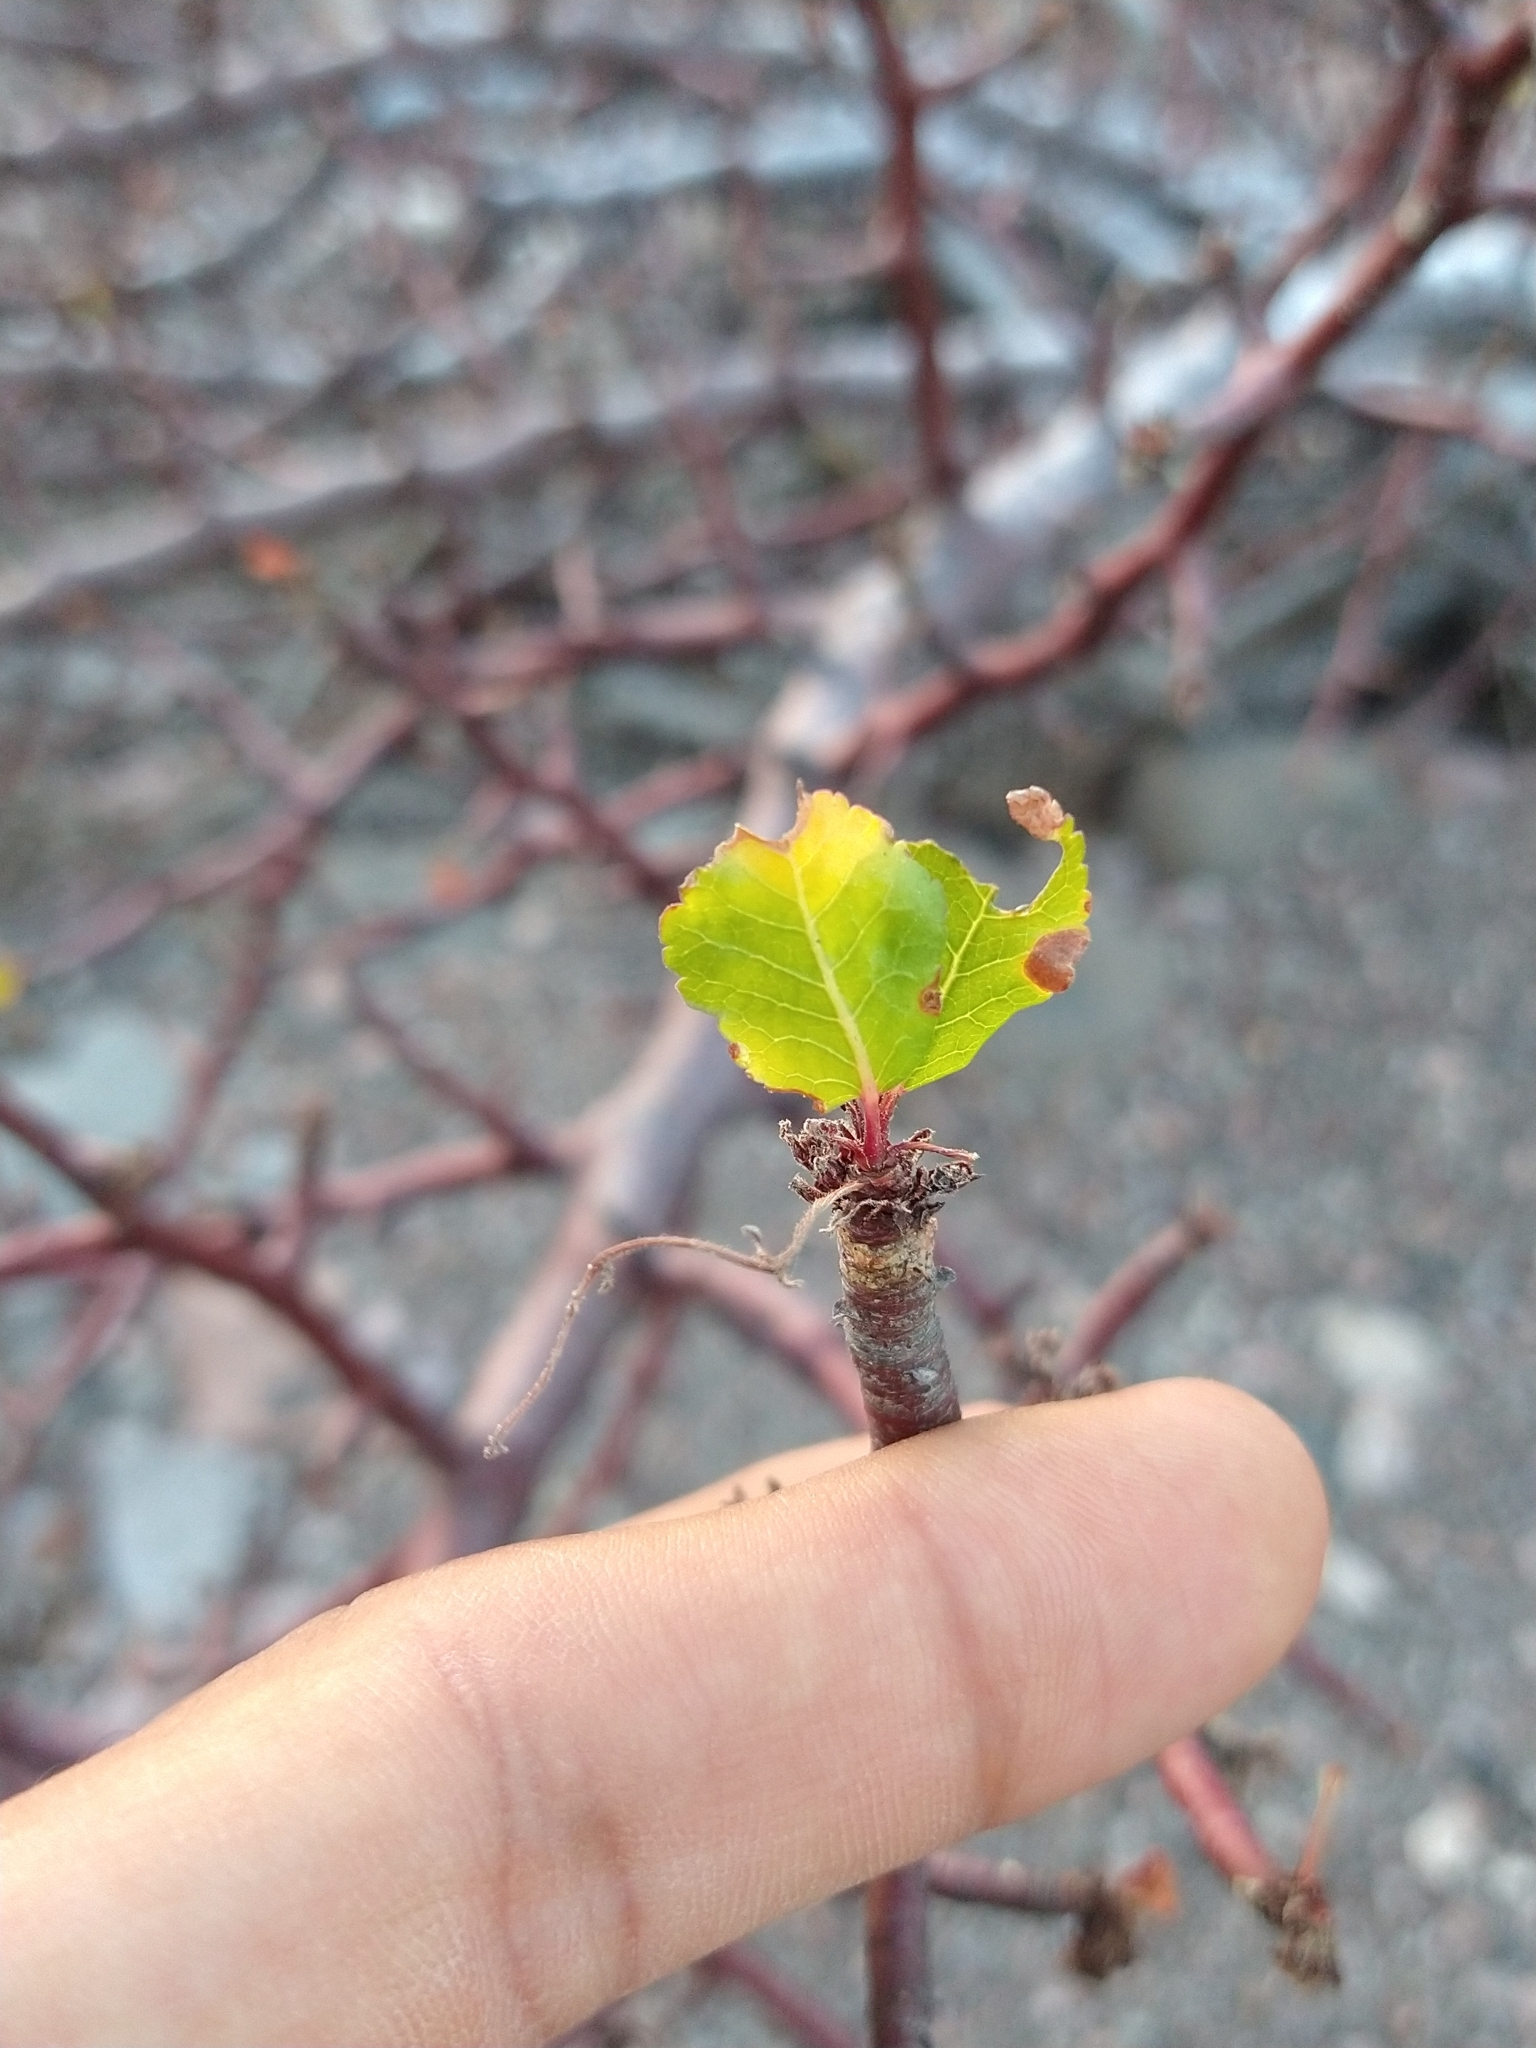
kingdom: Plantae
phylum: Tracheophyta
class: Magnoliopsida
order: Sapindales
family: Burseraceae
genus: Bursera
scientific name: Bursera epinnata
